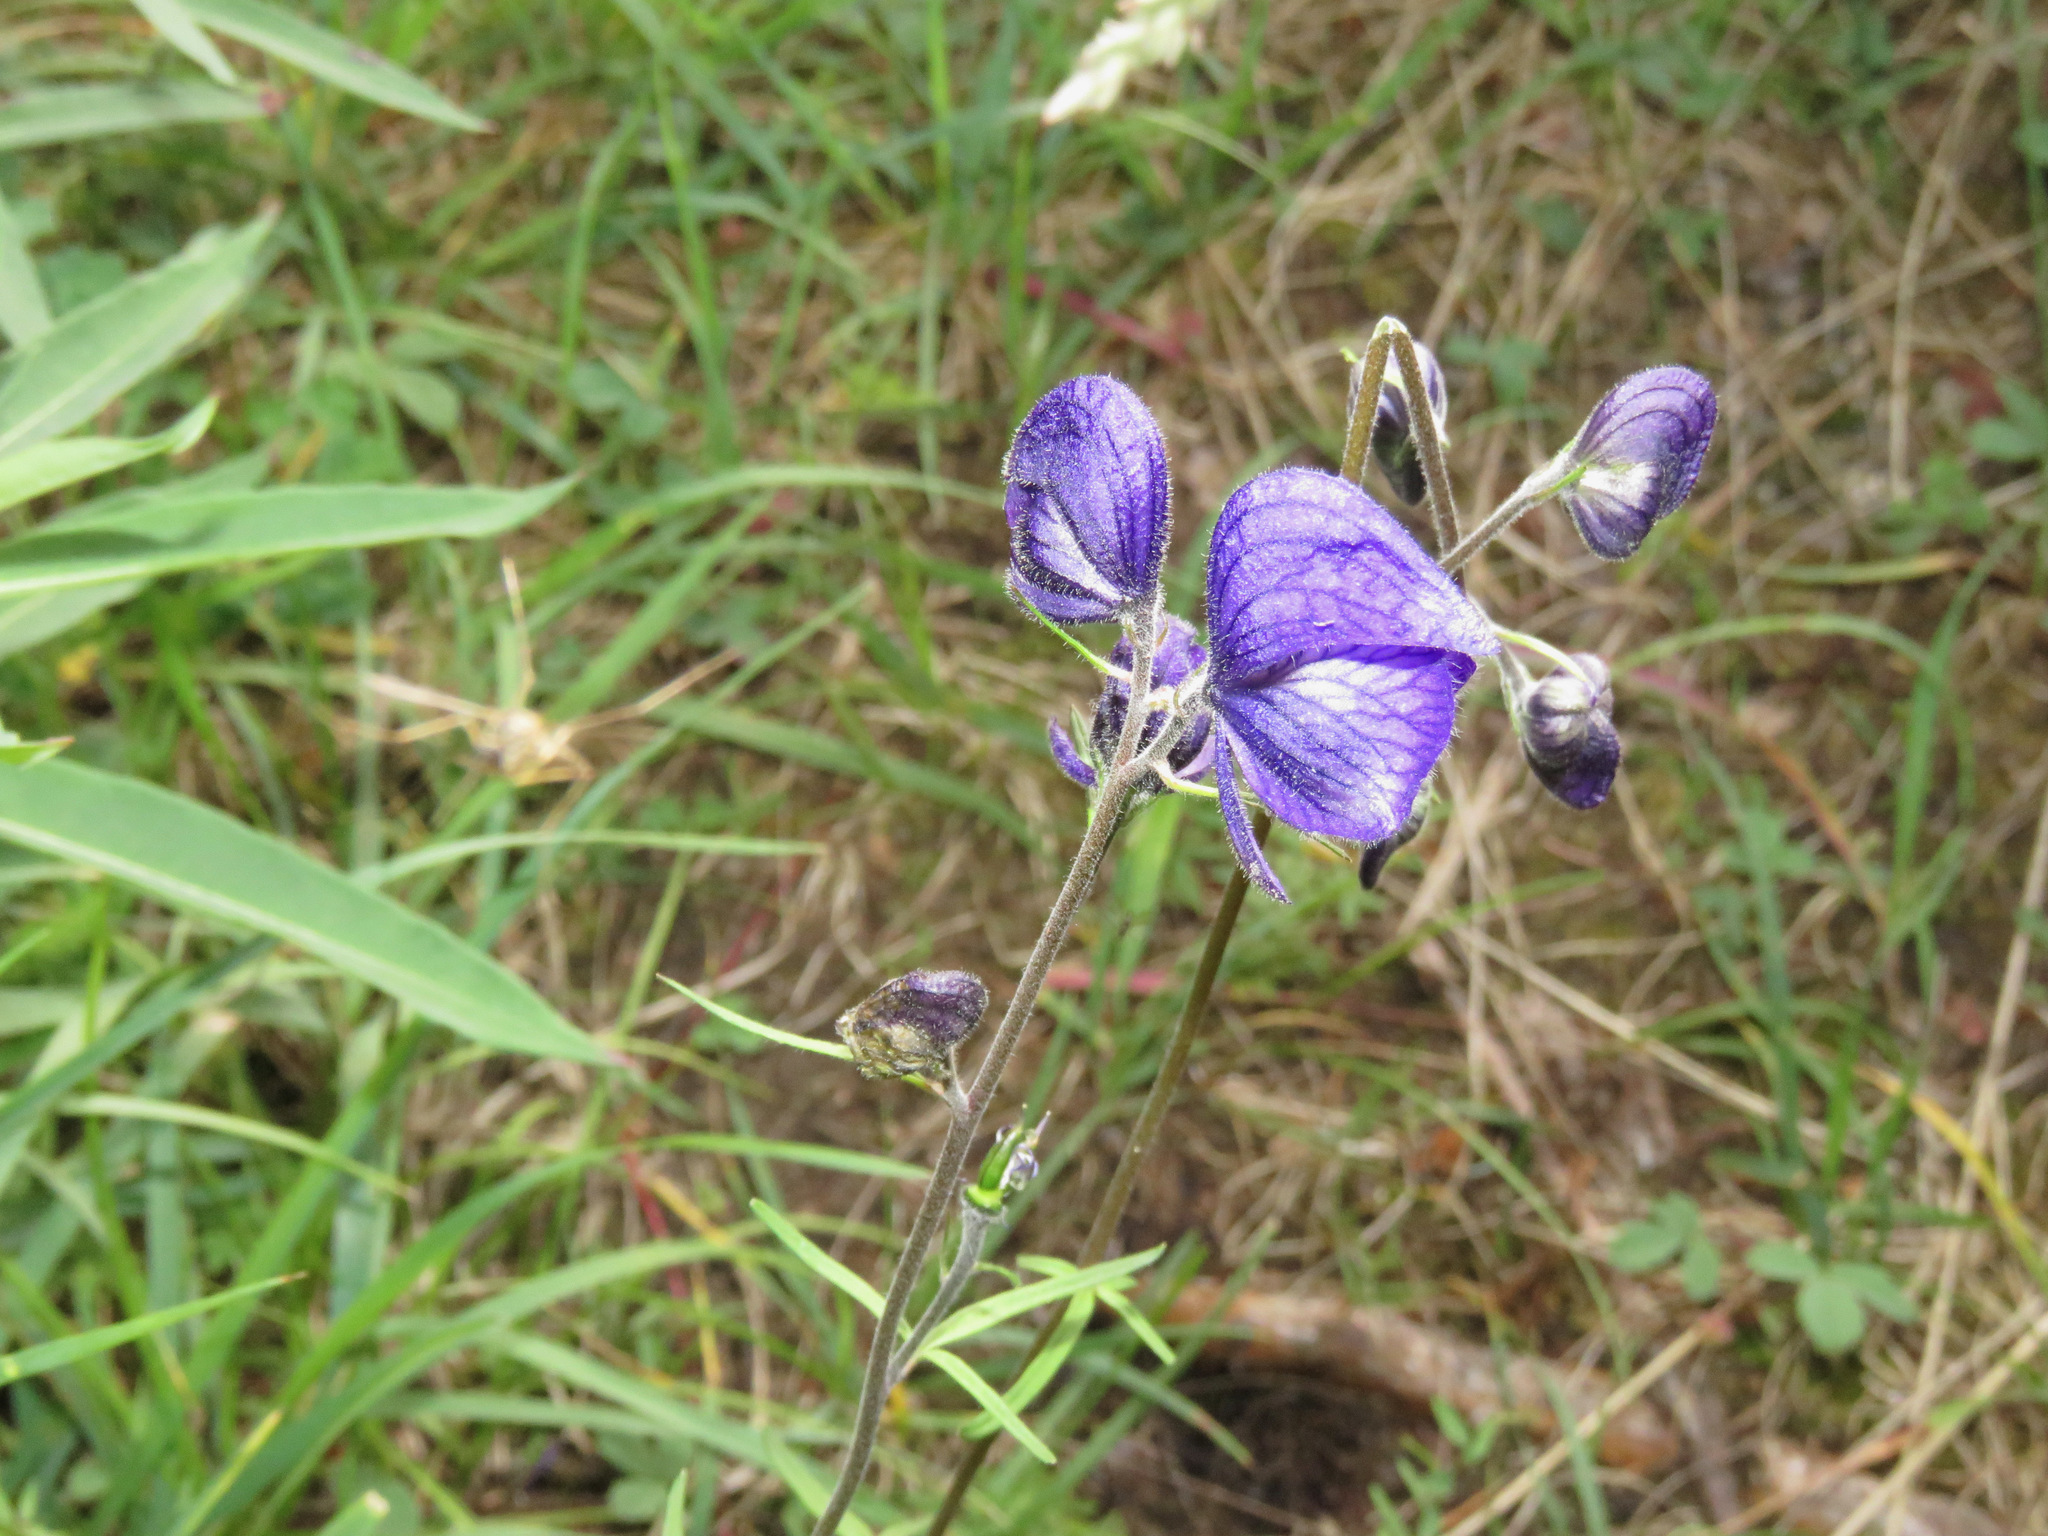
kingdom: Plantae
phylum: Tracheophyta
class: Magnoliopsida
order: Ranunculales
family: Ranunculaceae
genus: Aconitum
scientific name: Aconitum delphiniifolium
